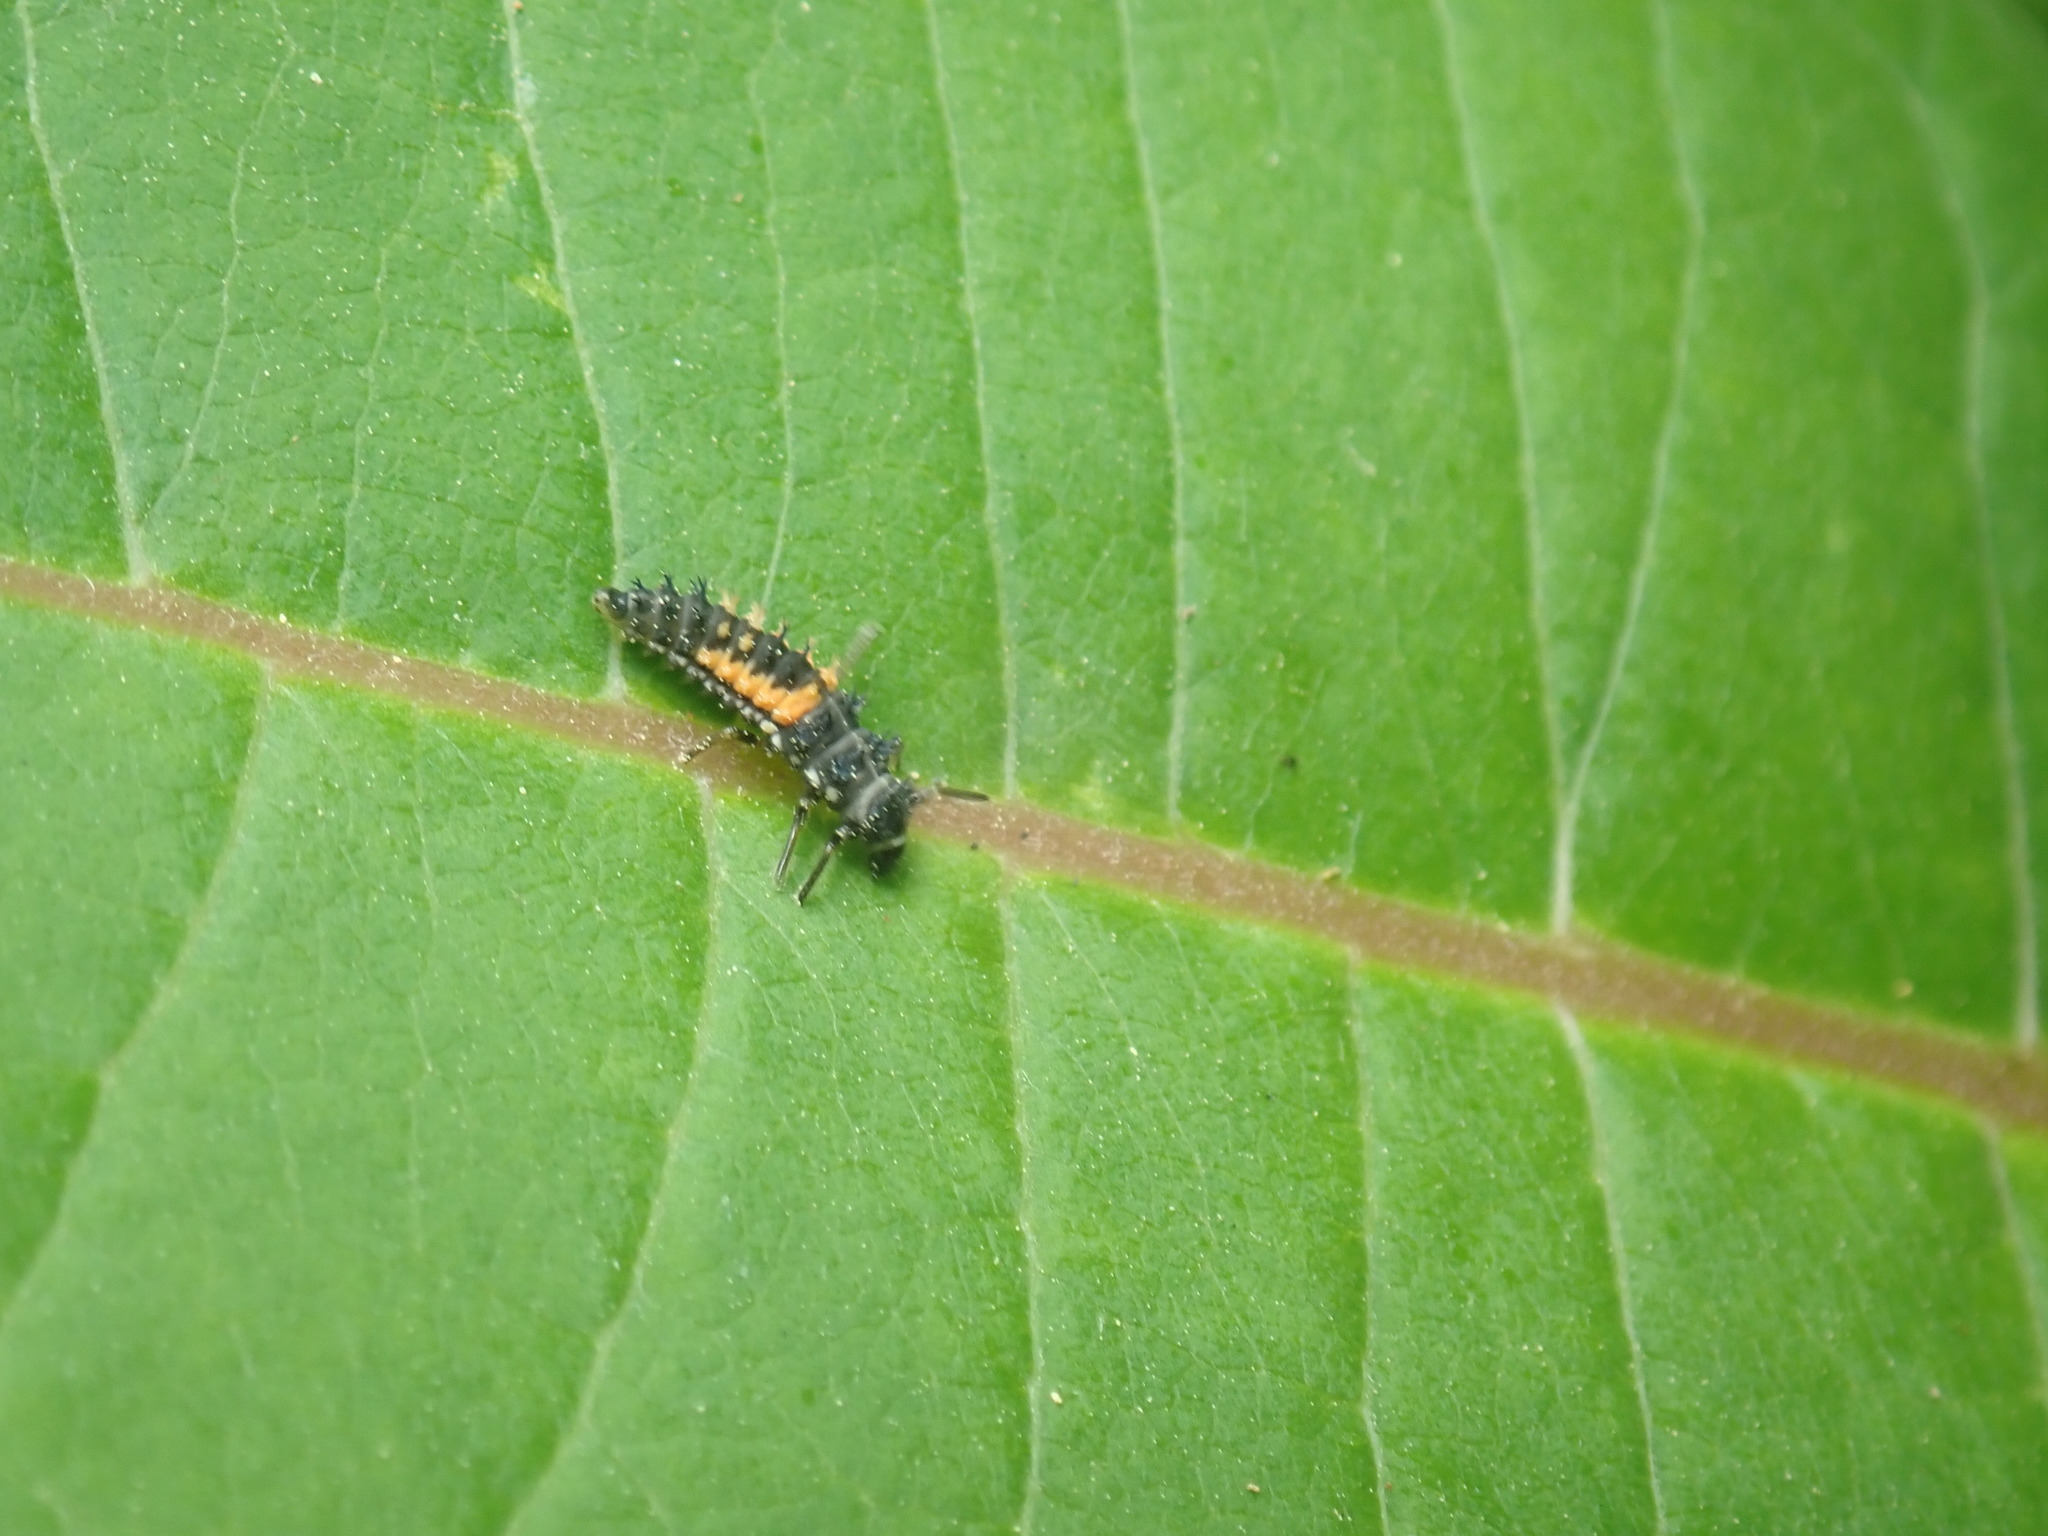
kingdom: Animalia
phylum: Arthropoda
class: Insecta
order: Coleoptera
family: Coccinellidae
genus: Harmonia
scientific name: Harmonia axyridis
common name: Harlequin ladybird
